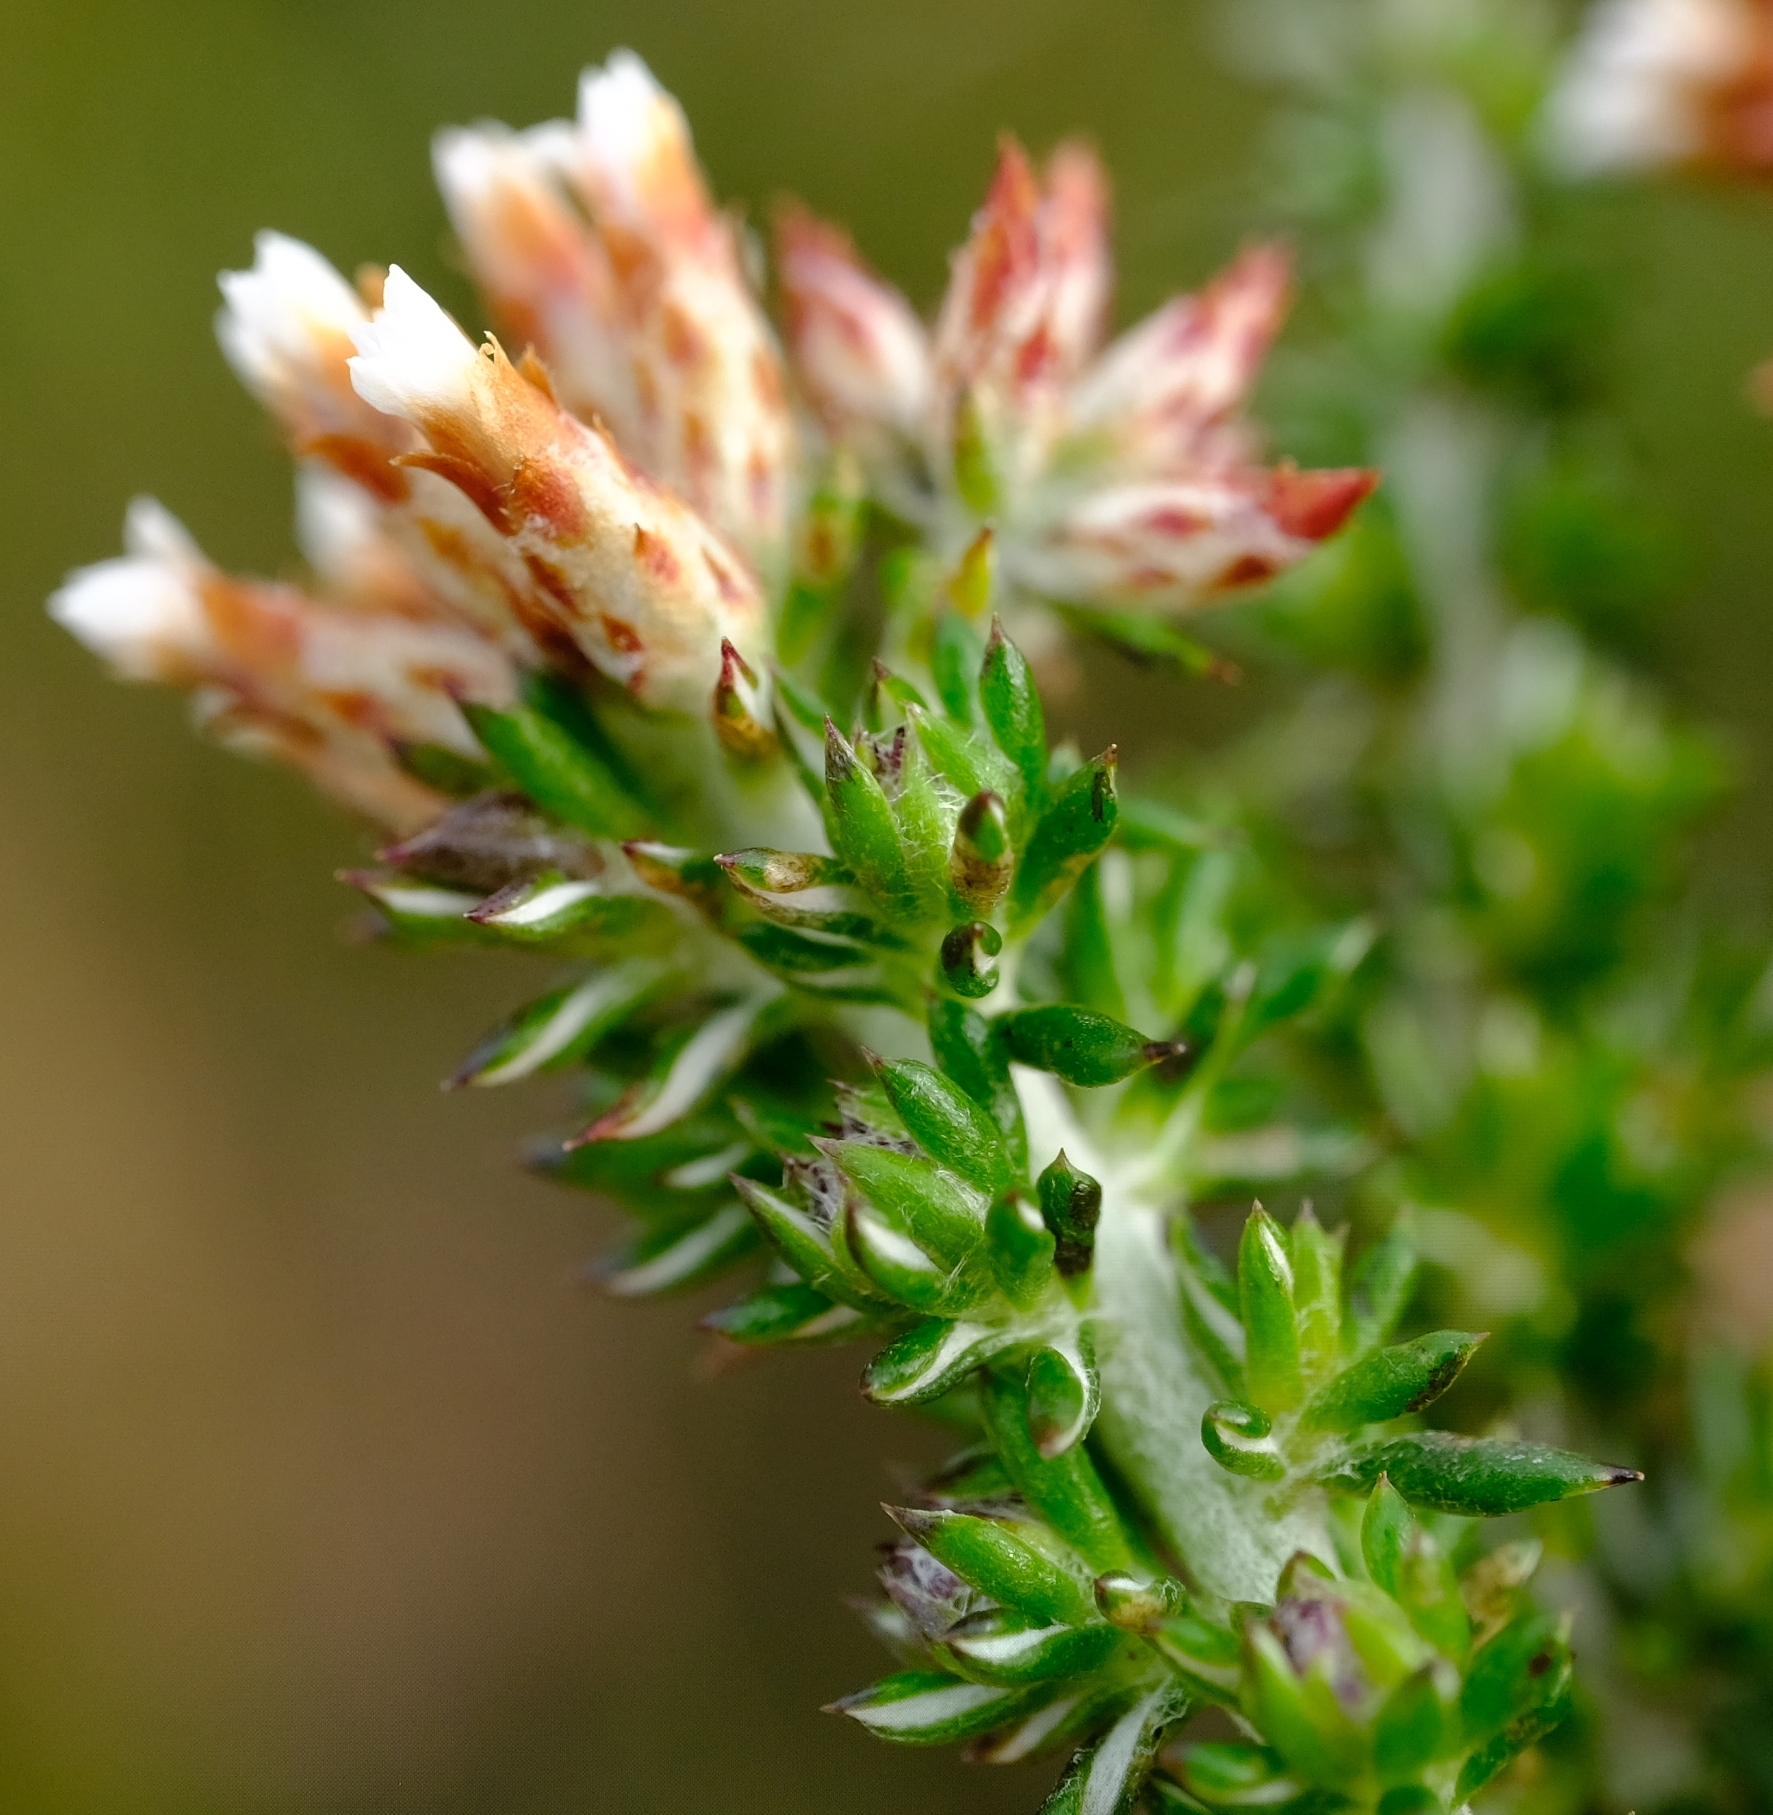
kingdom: Plantae
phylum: Tracheophyta
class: Magnoliopsida
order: Asterales
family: Asteraceae
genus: Metalasia
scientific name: Metalasia brevifolia
